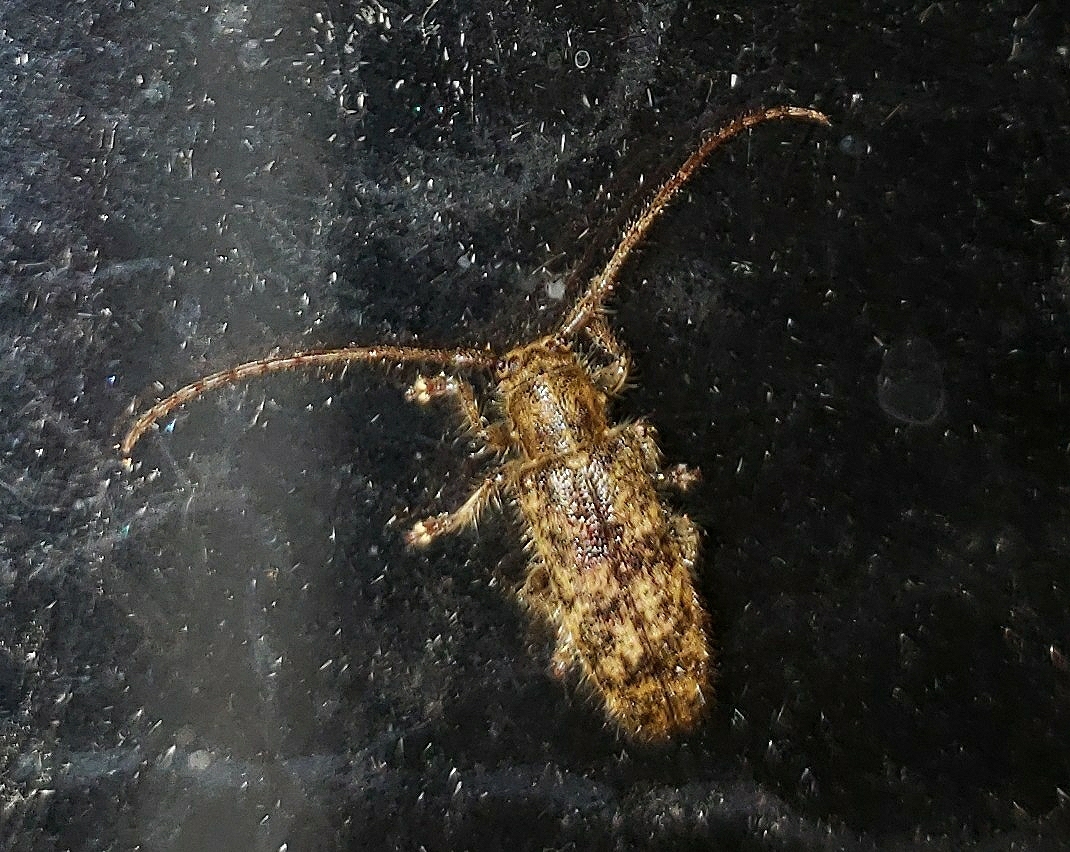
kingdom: Animalia
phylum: Arthropoda
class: Insecta
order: Coleoptera
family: Cerambycidae
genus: Eupogonius
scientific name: Eupogonius tomentosus
